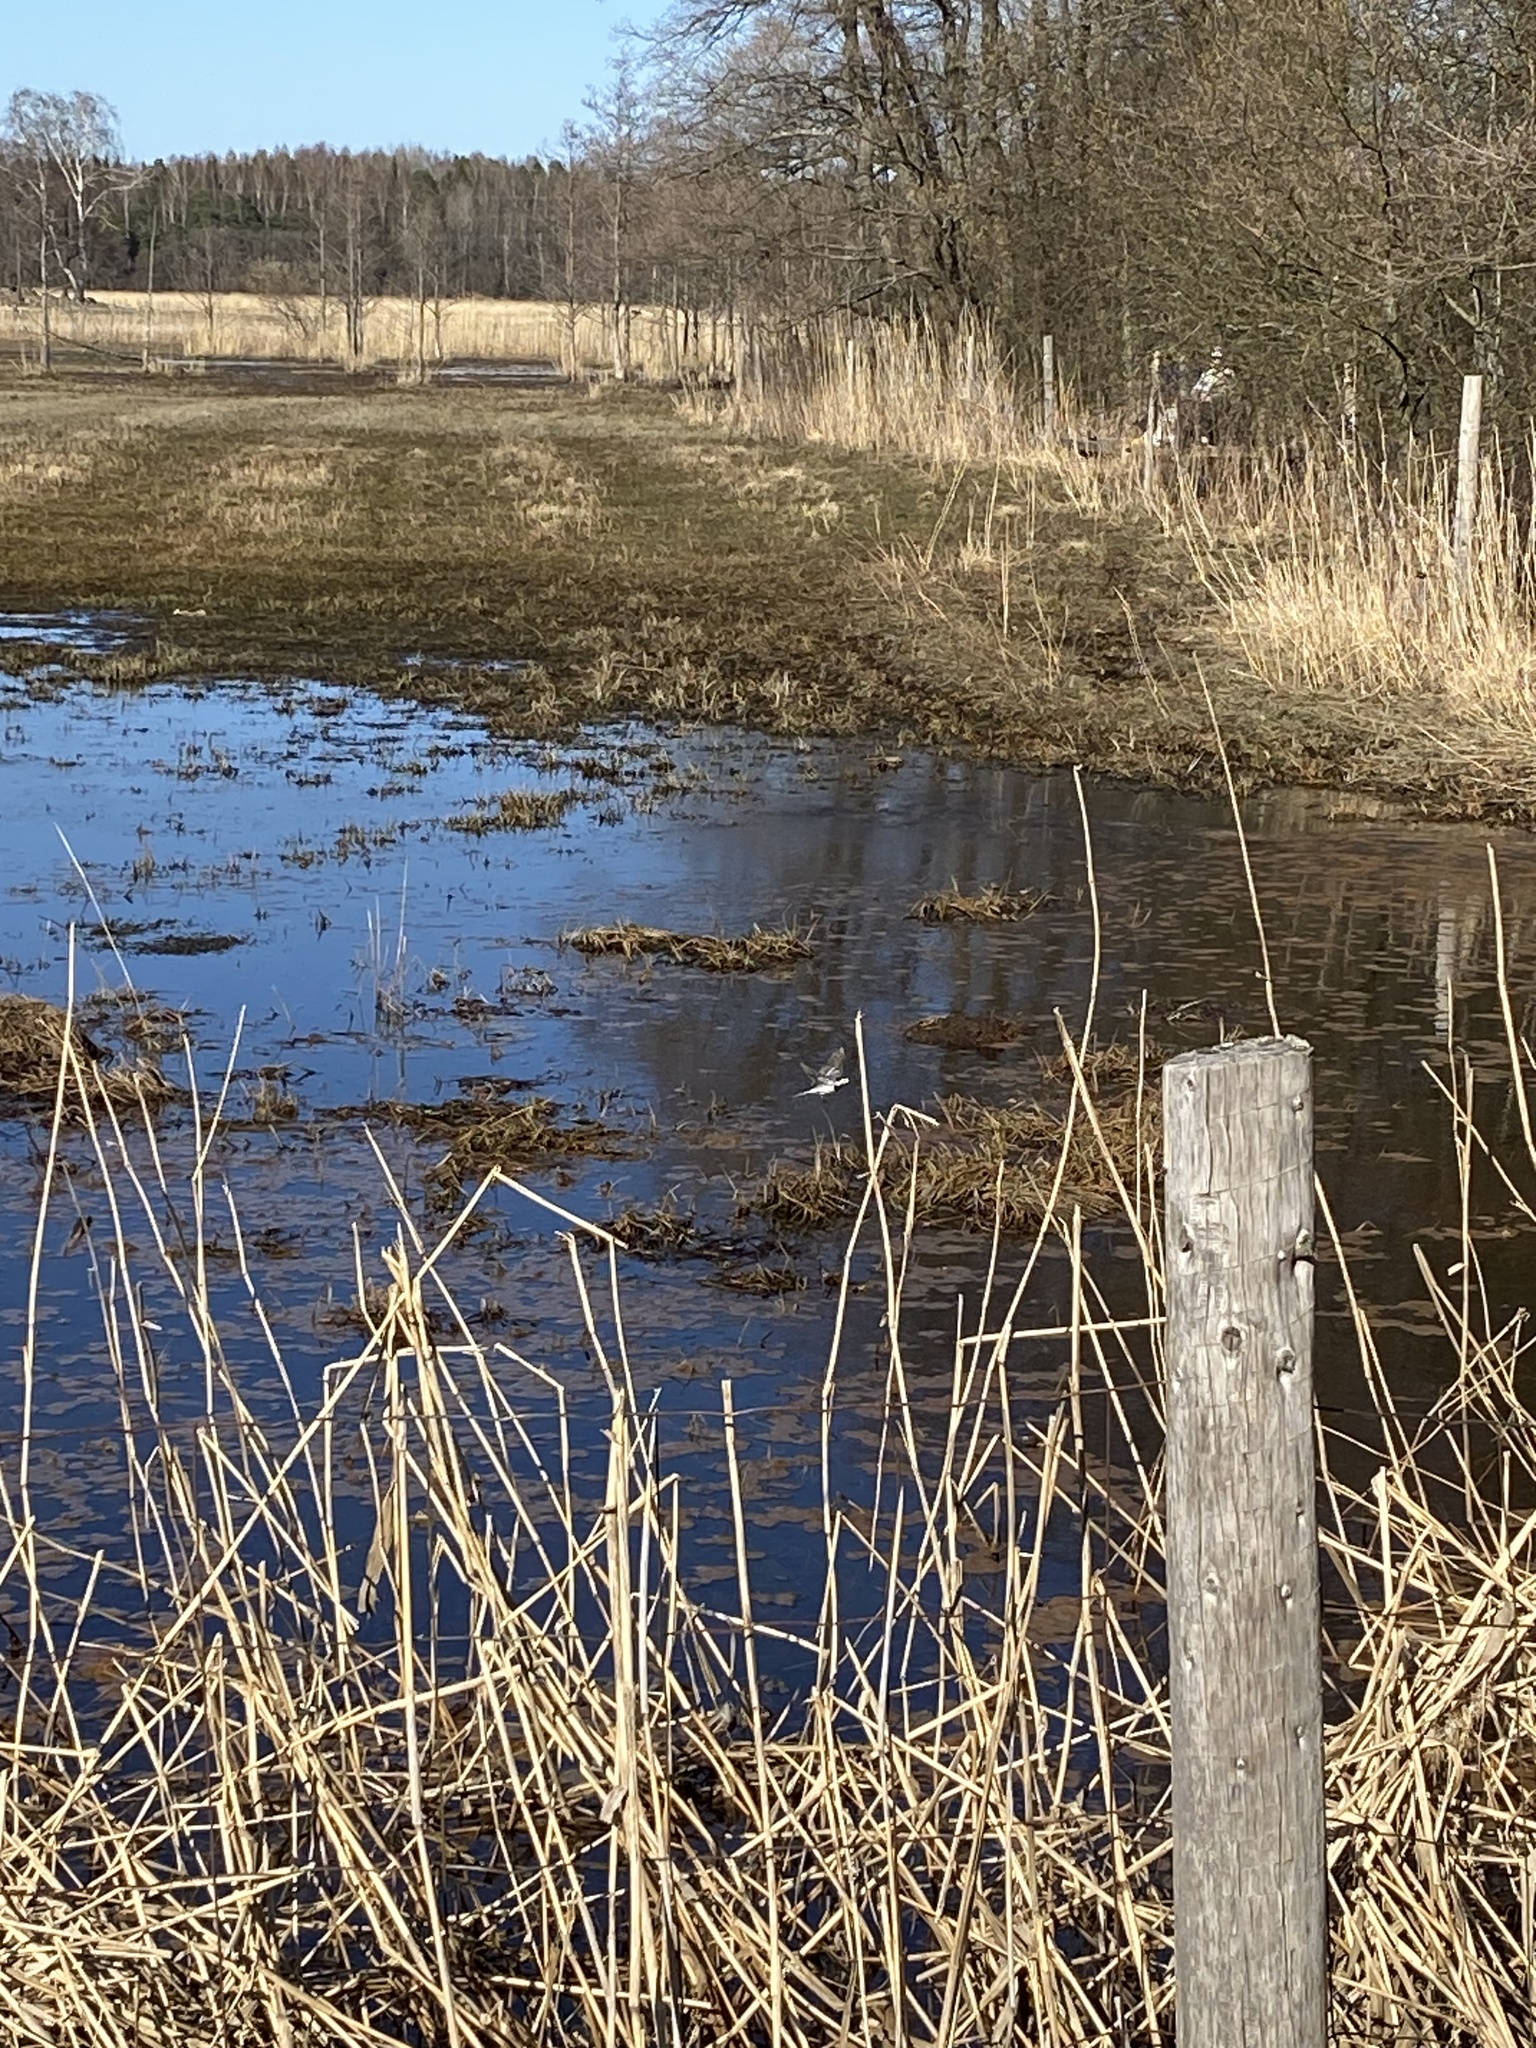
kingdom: Animalia
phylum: Chordata
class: Aves
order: Passeriformes
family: Motacillidae
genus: Motacilla
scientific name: Motacilla alba
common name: White wagtail
